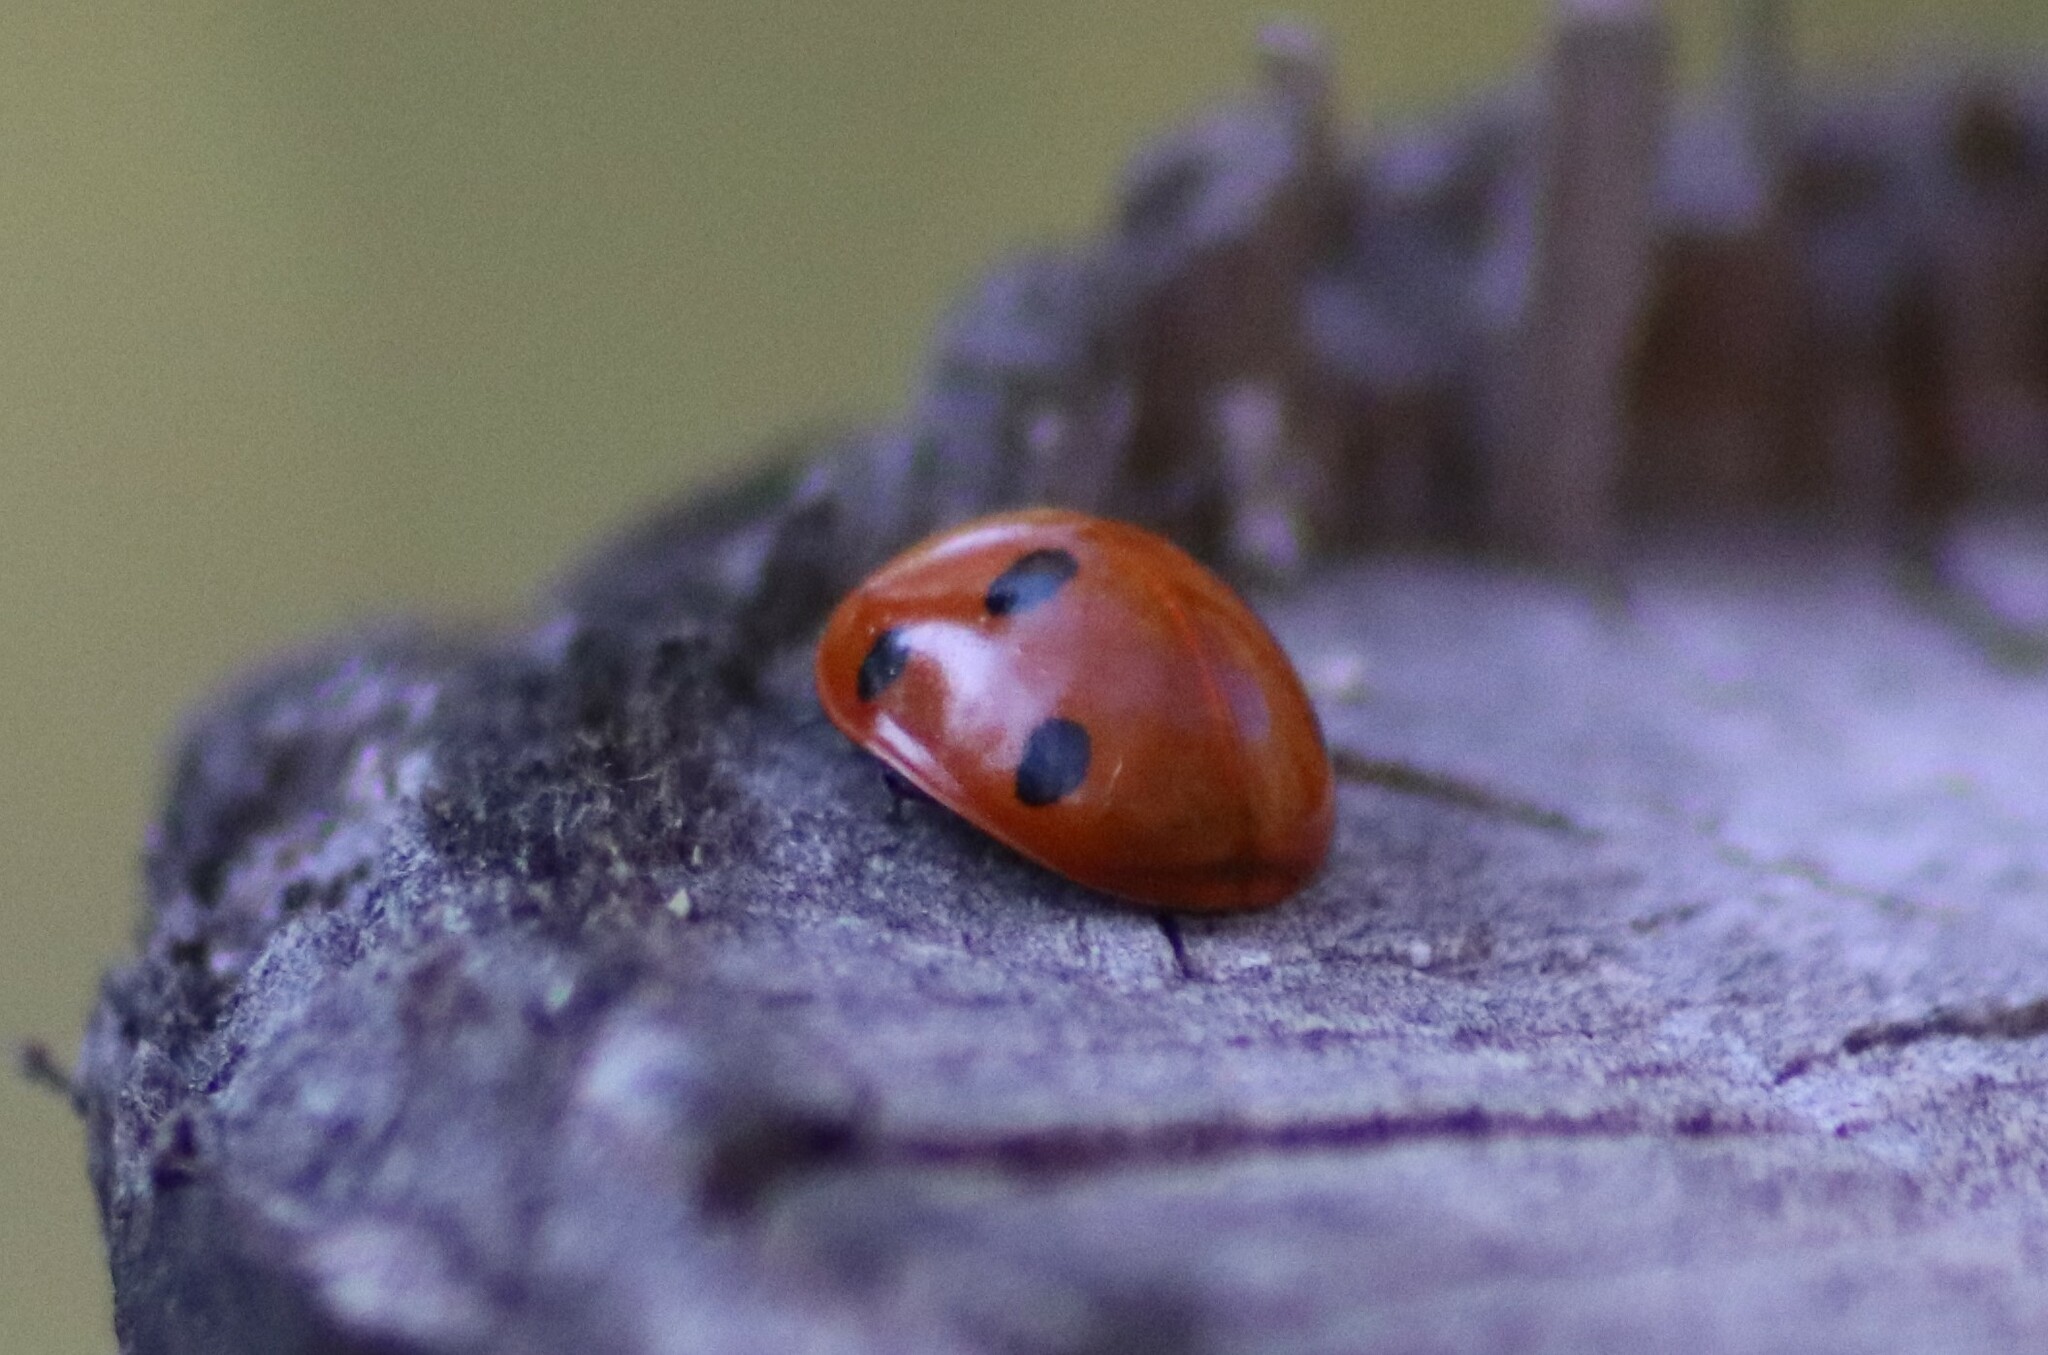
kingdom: Animalia
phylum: Arthropoda
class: Insecta
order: Coleoptera
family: Coccinellidae
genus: Coccinella
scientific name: Coccinella septempunctata
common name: Sevenspotted lady beetle
